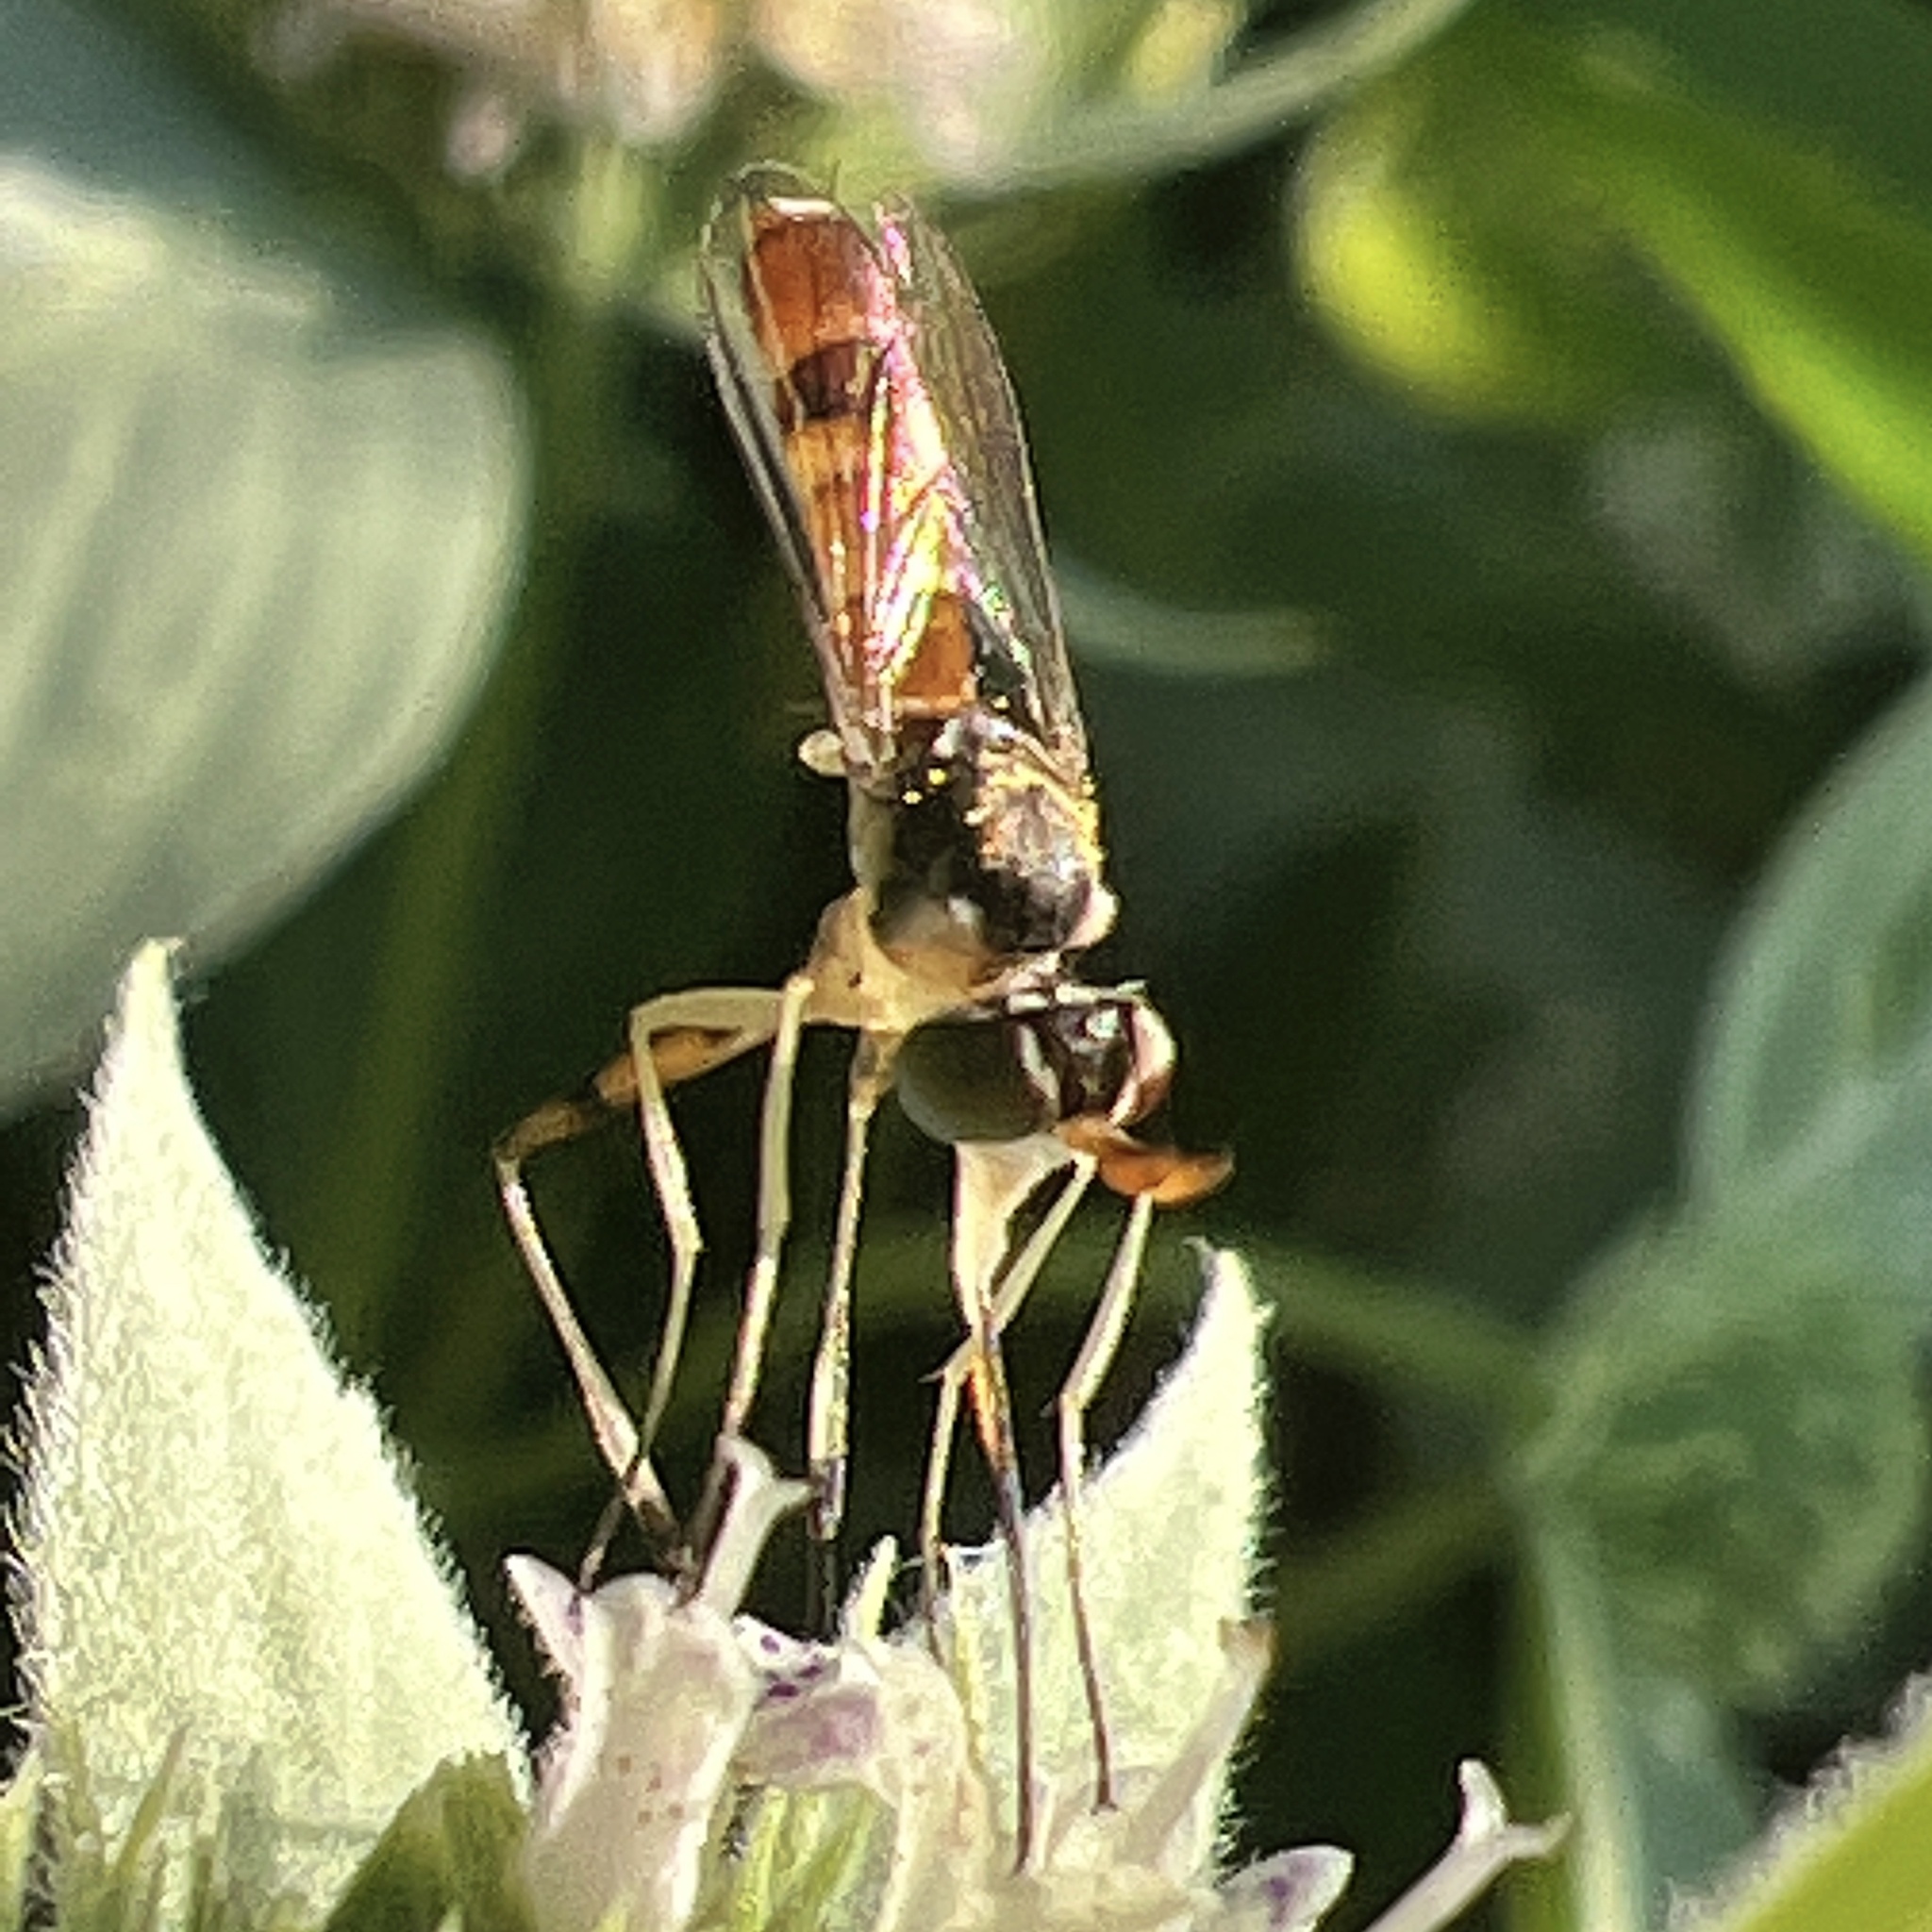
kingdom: Animalia
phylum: Arthropoda
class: Insecta
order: Diptera
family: Conopidae
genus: Stylogaster
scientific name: Stylogaster neglecta
